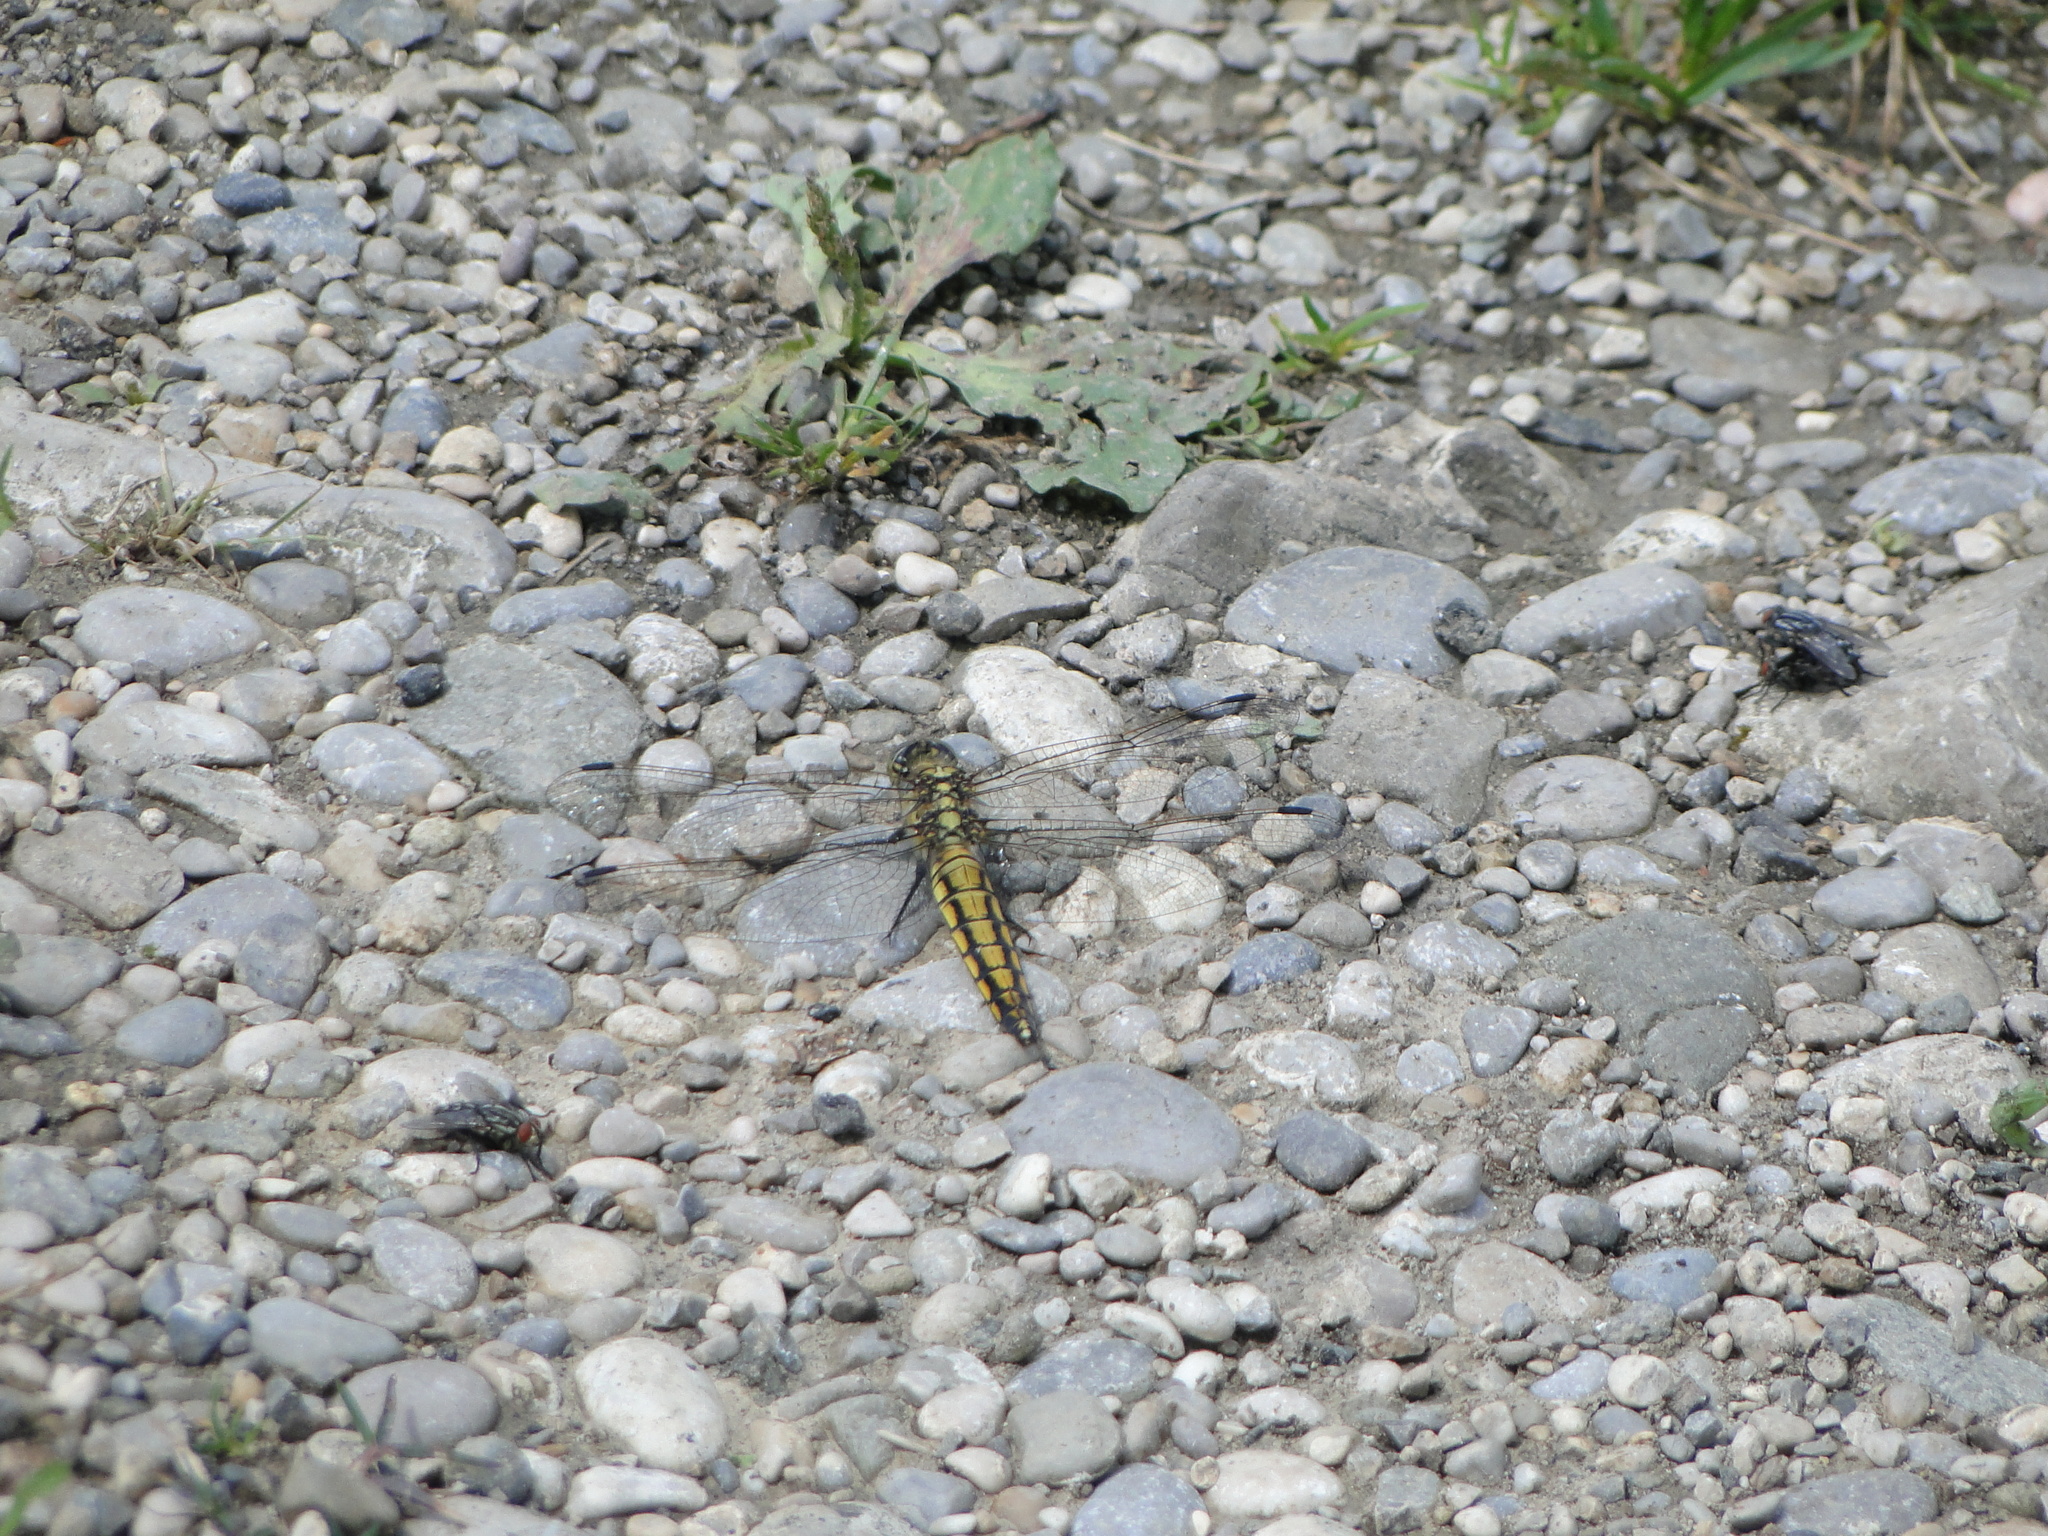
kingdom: Animalia
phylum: Arthropoda
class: Insecta
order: Odonata
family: Libellulidae
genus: Orthetrum
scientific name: Orthetrum cancellatum
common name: Black-tailed skimmer
